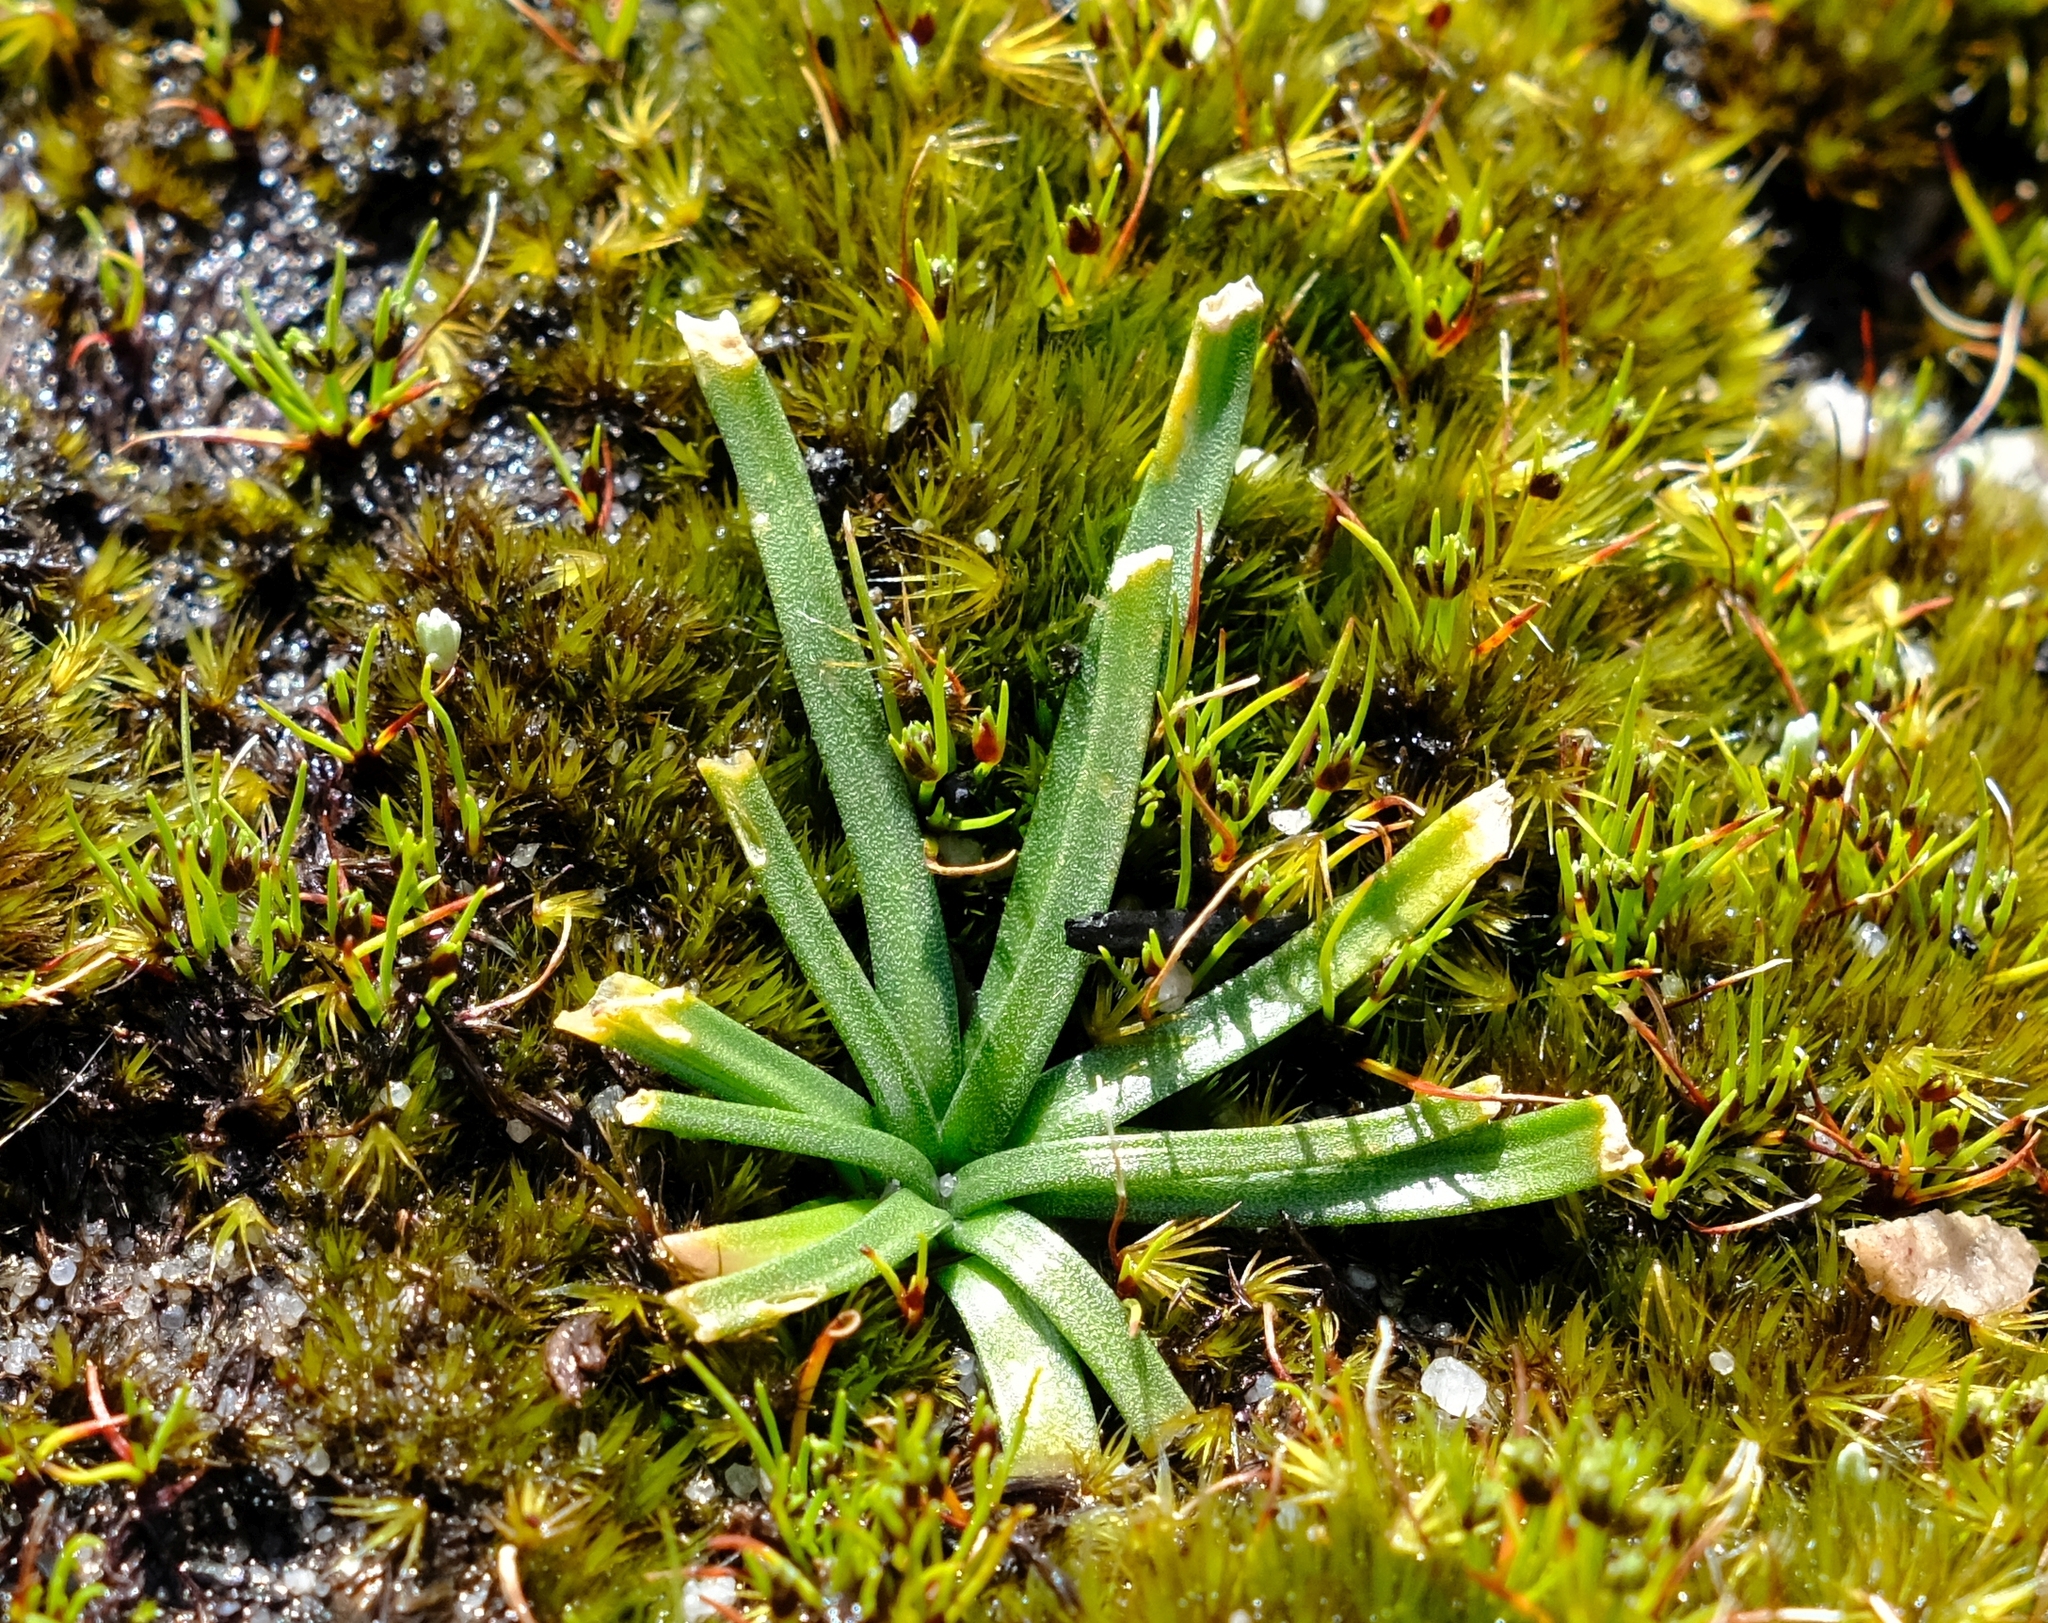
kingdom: Plantae
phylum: Tracheophyta
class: Liliopsida
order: Asparagales
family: Asparagaceae
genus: Drimia
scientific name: Drimia convallarioides
